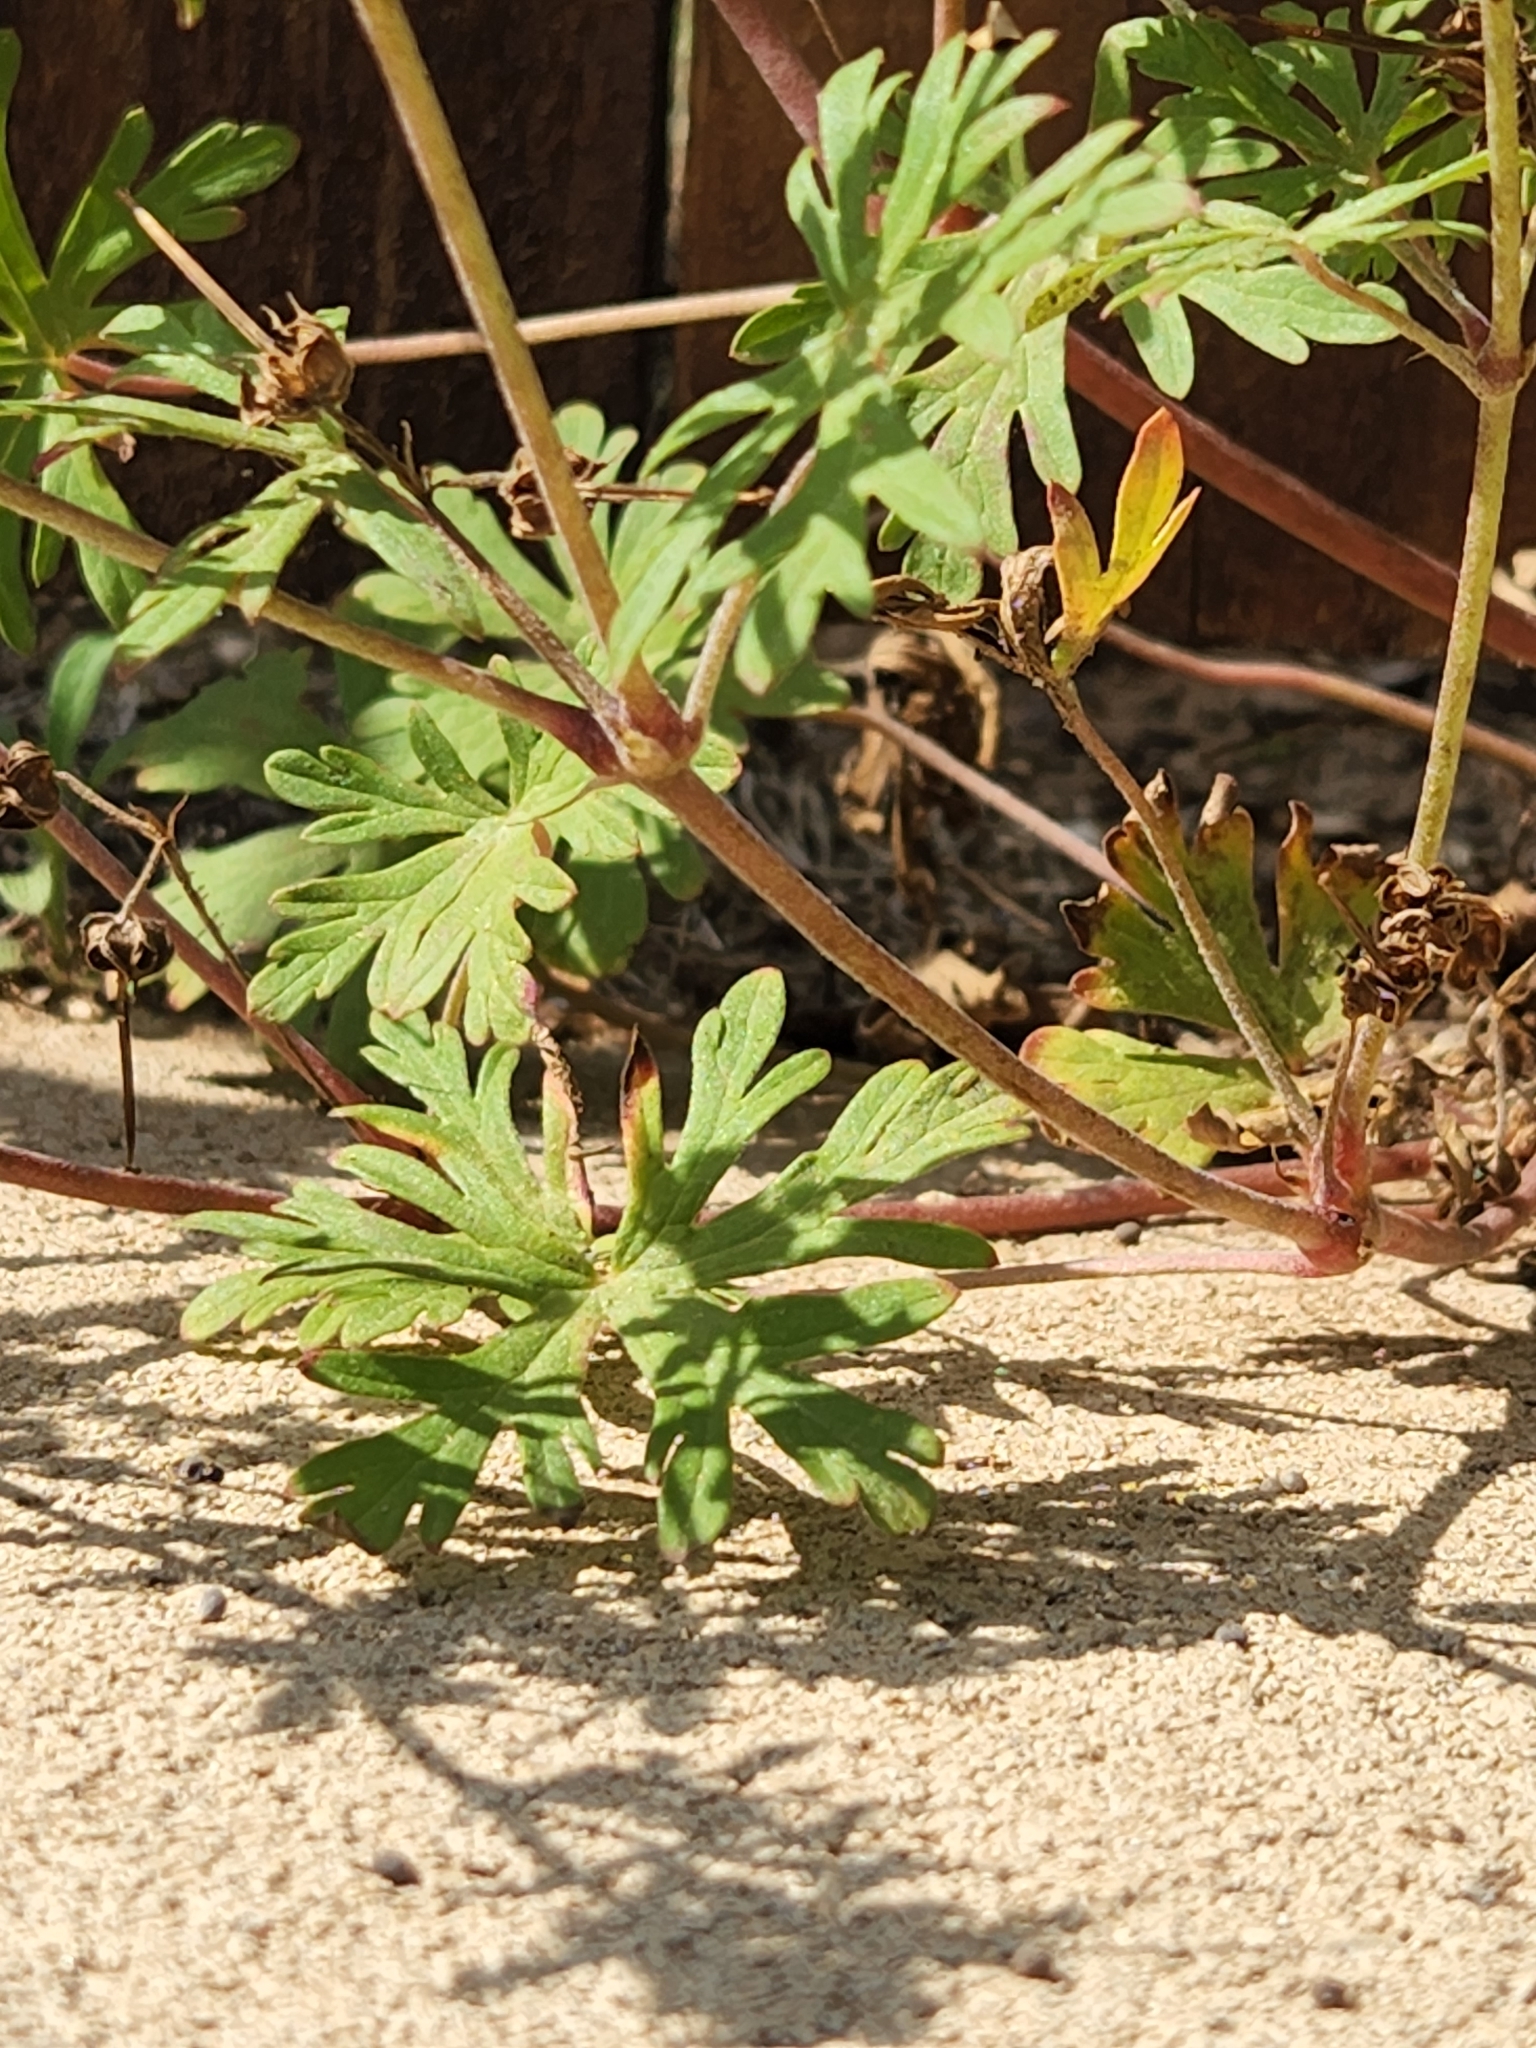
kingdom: Plantae
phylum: Tracheophyta
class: Magnoliopsida
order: Geraniales
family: Geraniaceae
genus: Geranium
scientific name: Geranium carolinianum
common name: Carolina crane's-bill
